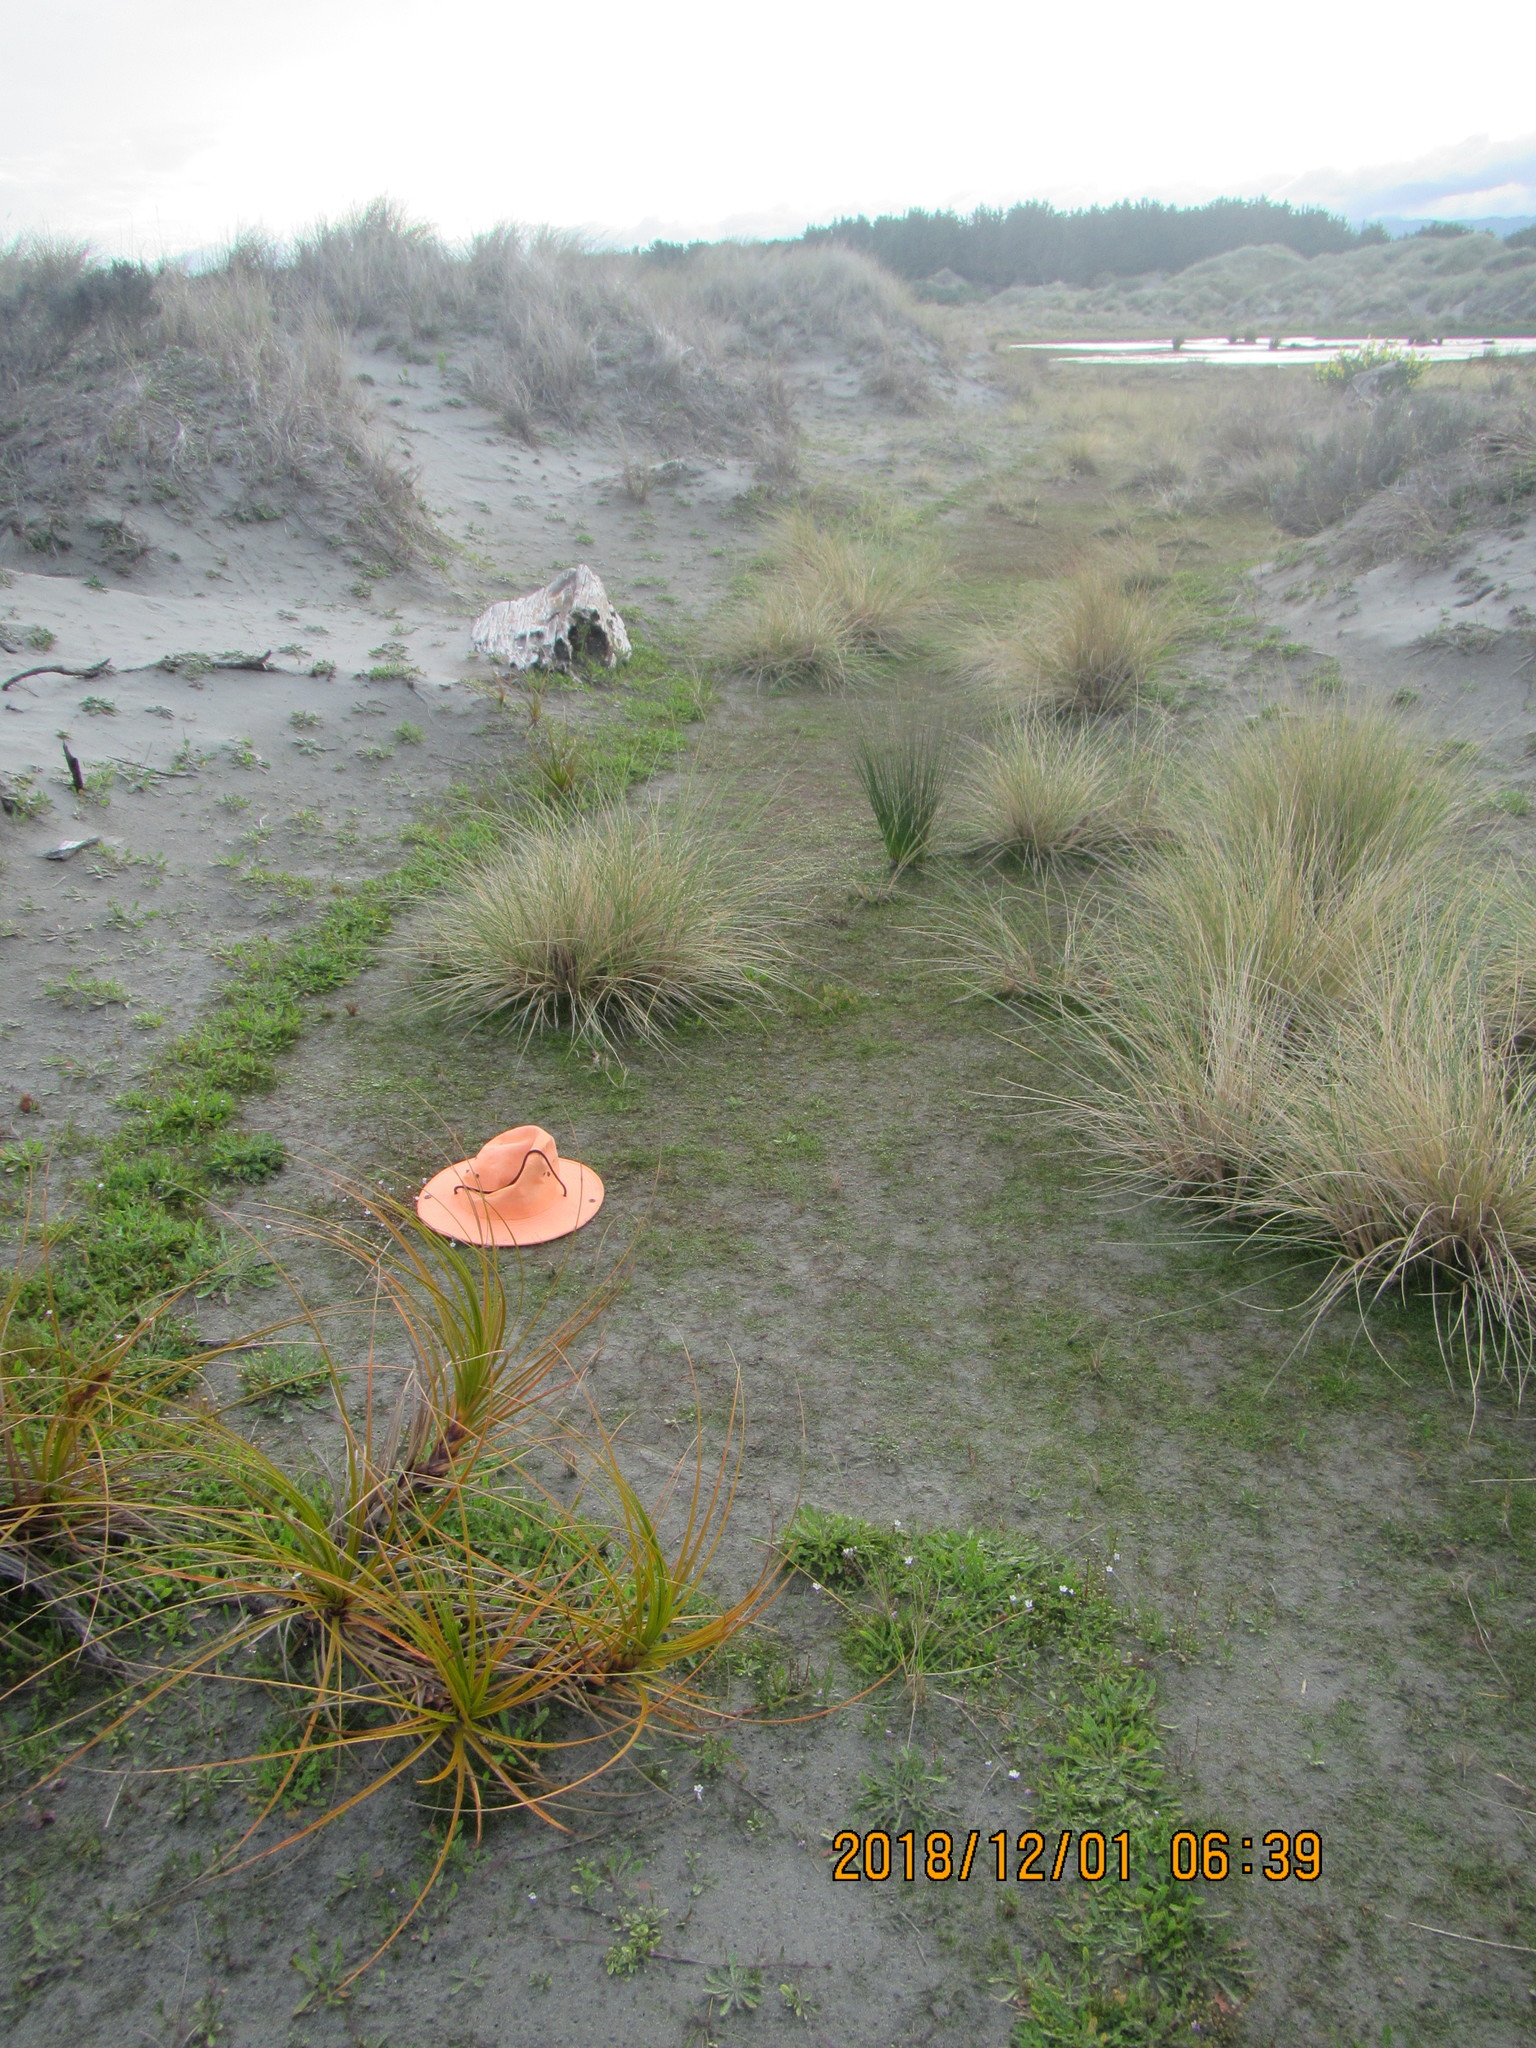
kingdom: Plantae
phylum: Tracheophyta
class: Magnoliopsida
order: Apiales
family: Apiaceae
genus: Lilaeopsis
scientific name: Lilaeopsis novae-zelandiae
